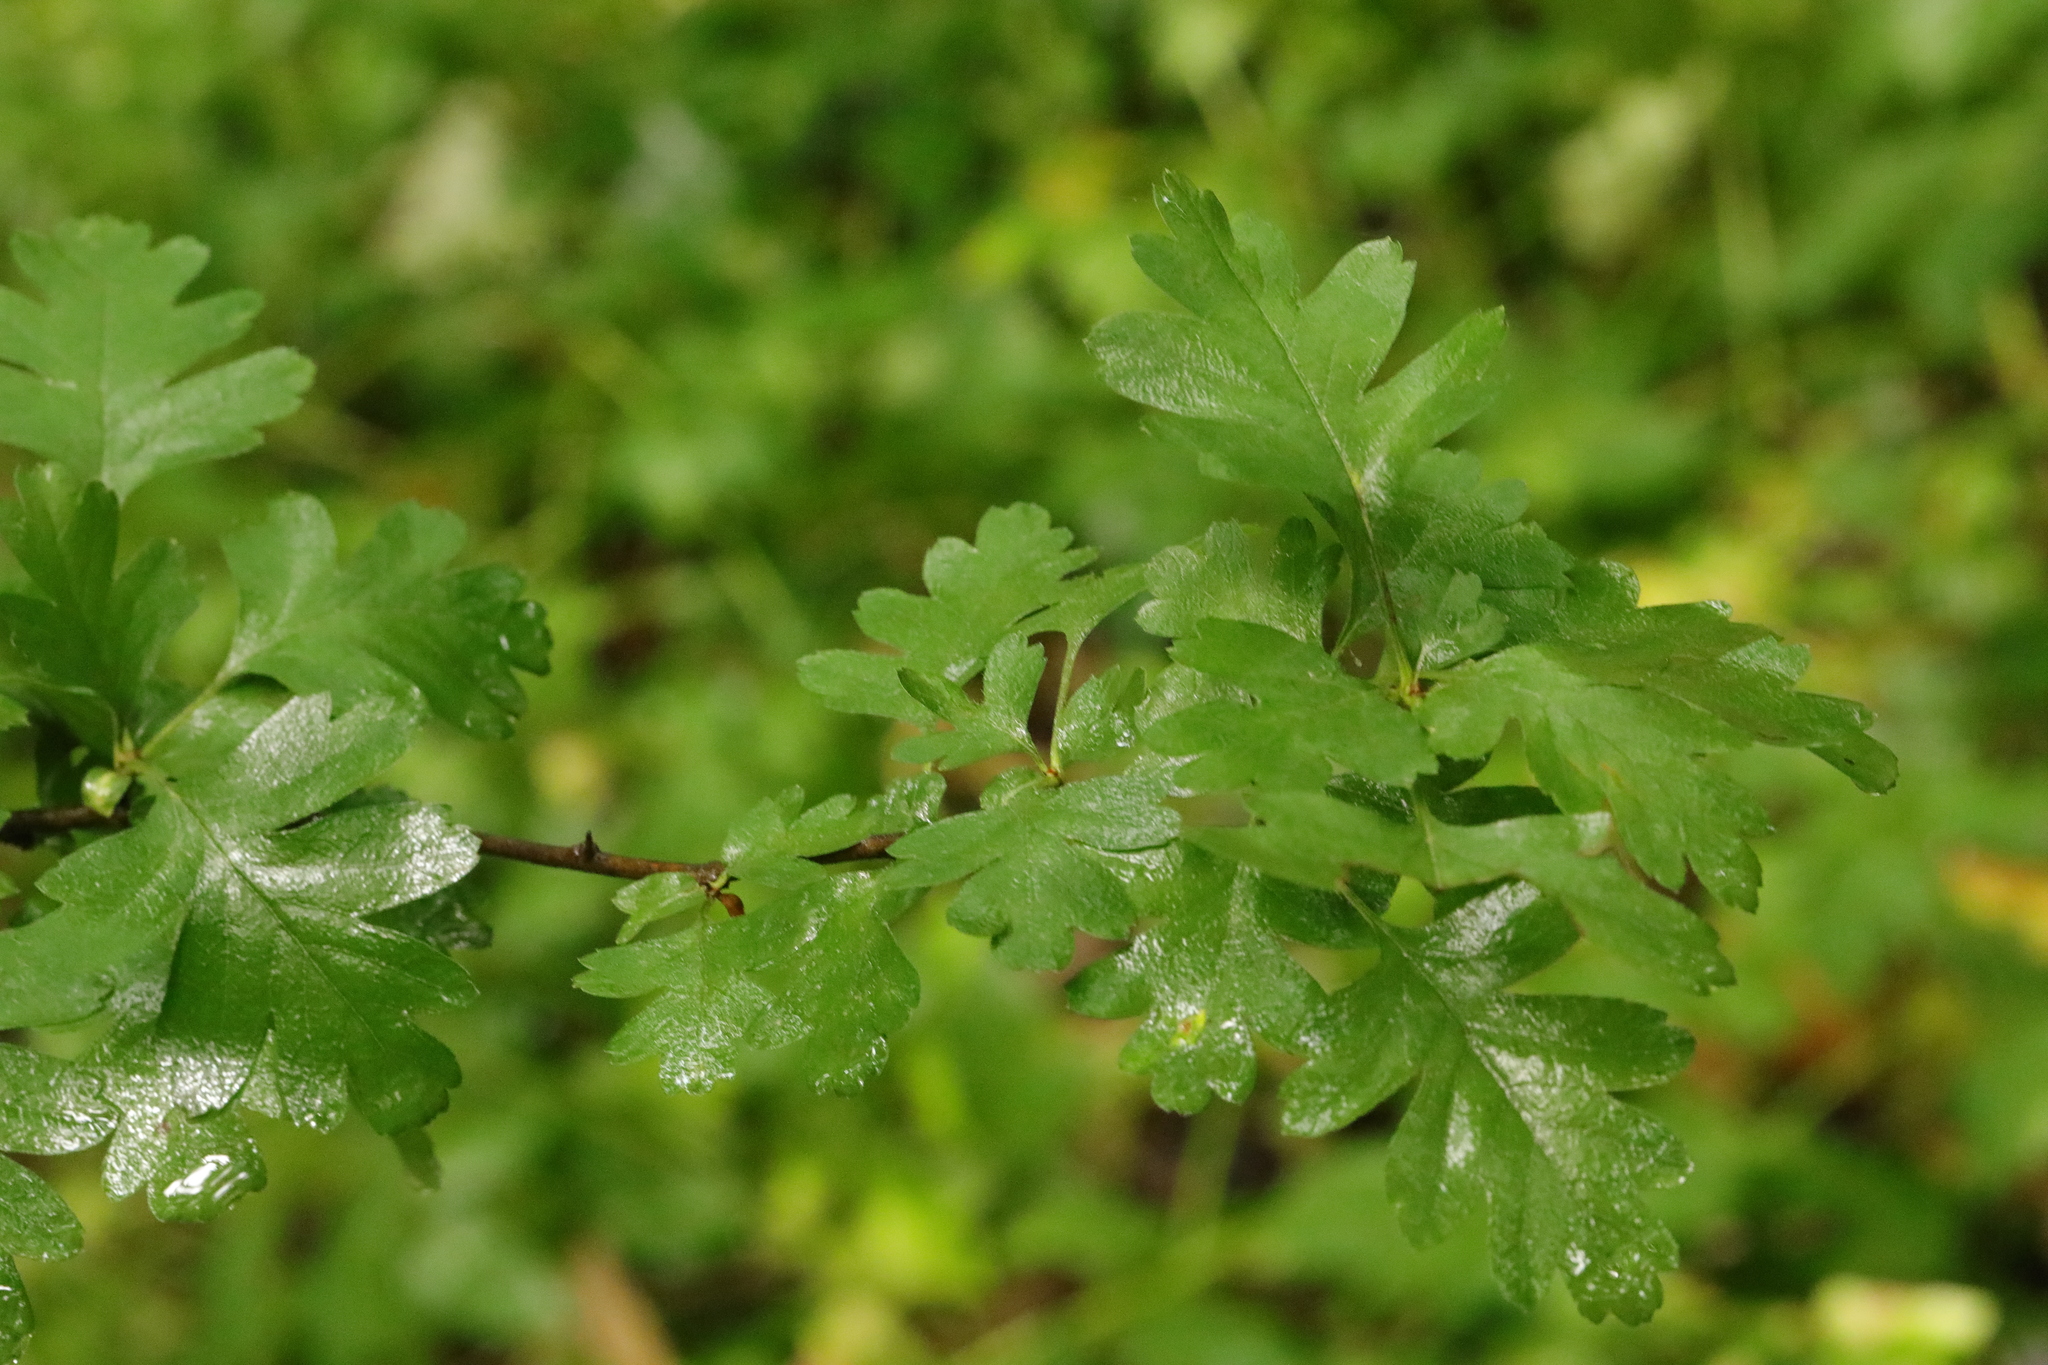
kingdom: Plantae
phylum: Tracheophyta
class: Magnoliopsida
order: Rosales
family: Rosaceae
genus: Crataegus
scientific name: Crataegus monogyna
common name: Hawthorn
